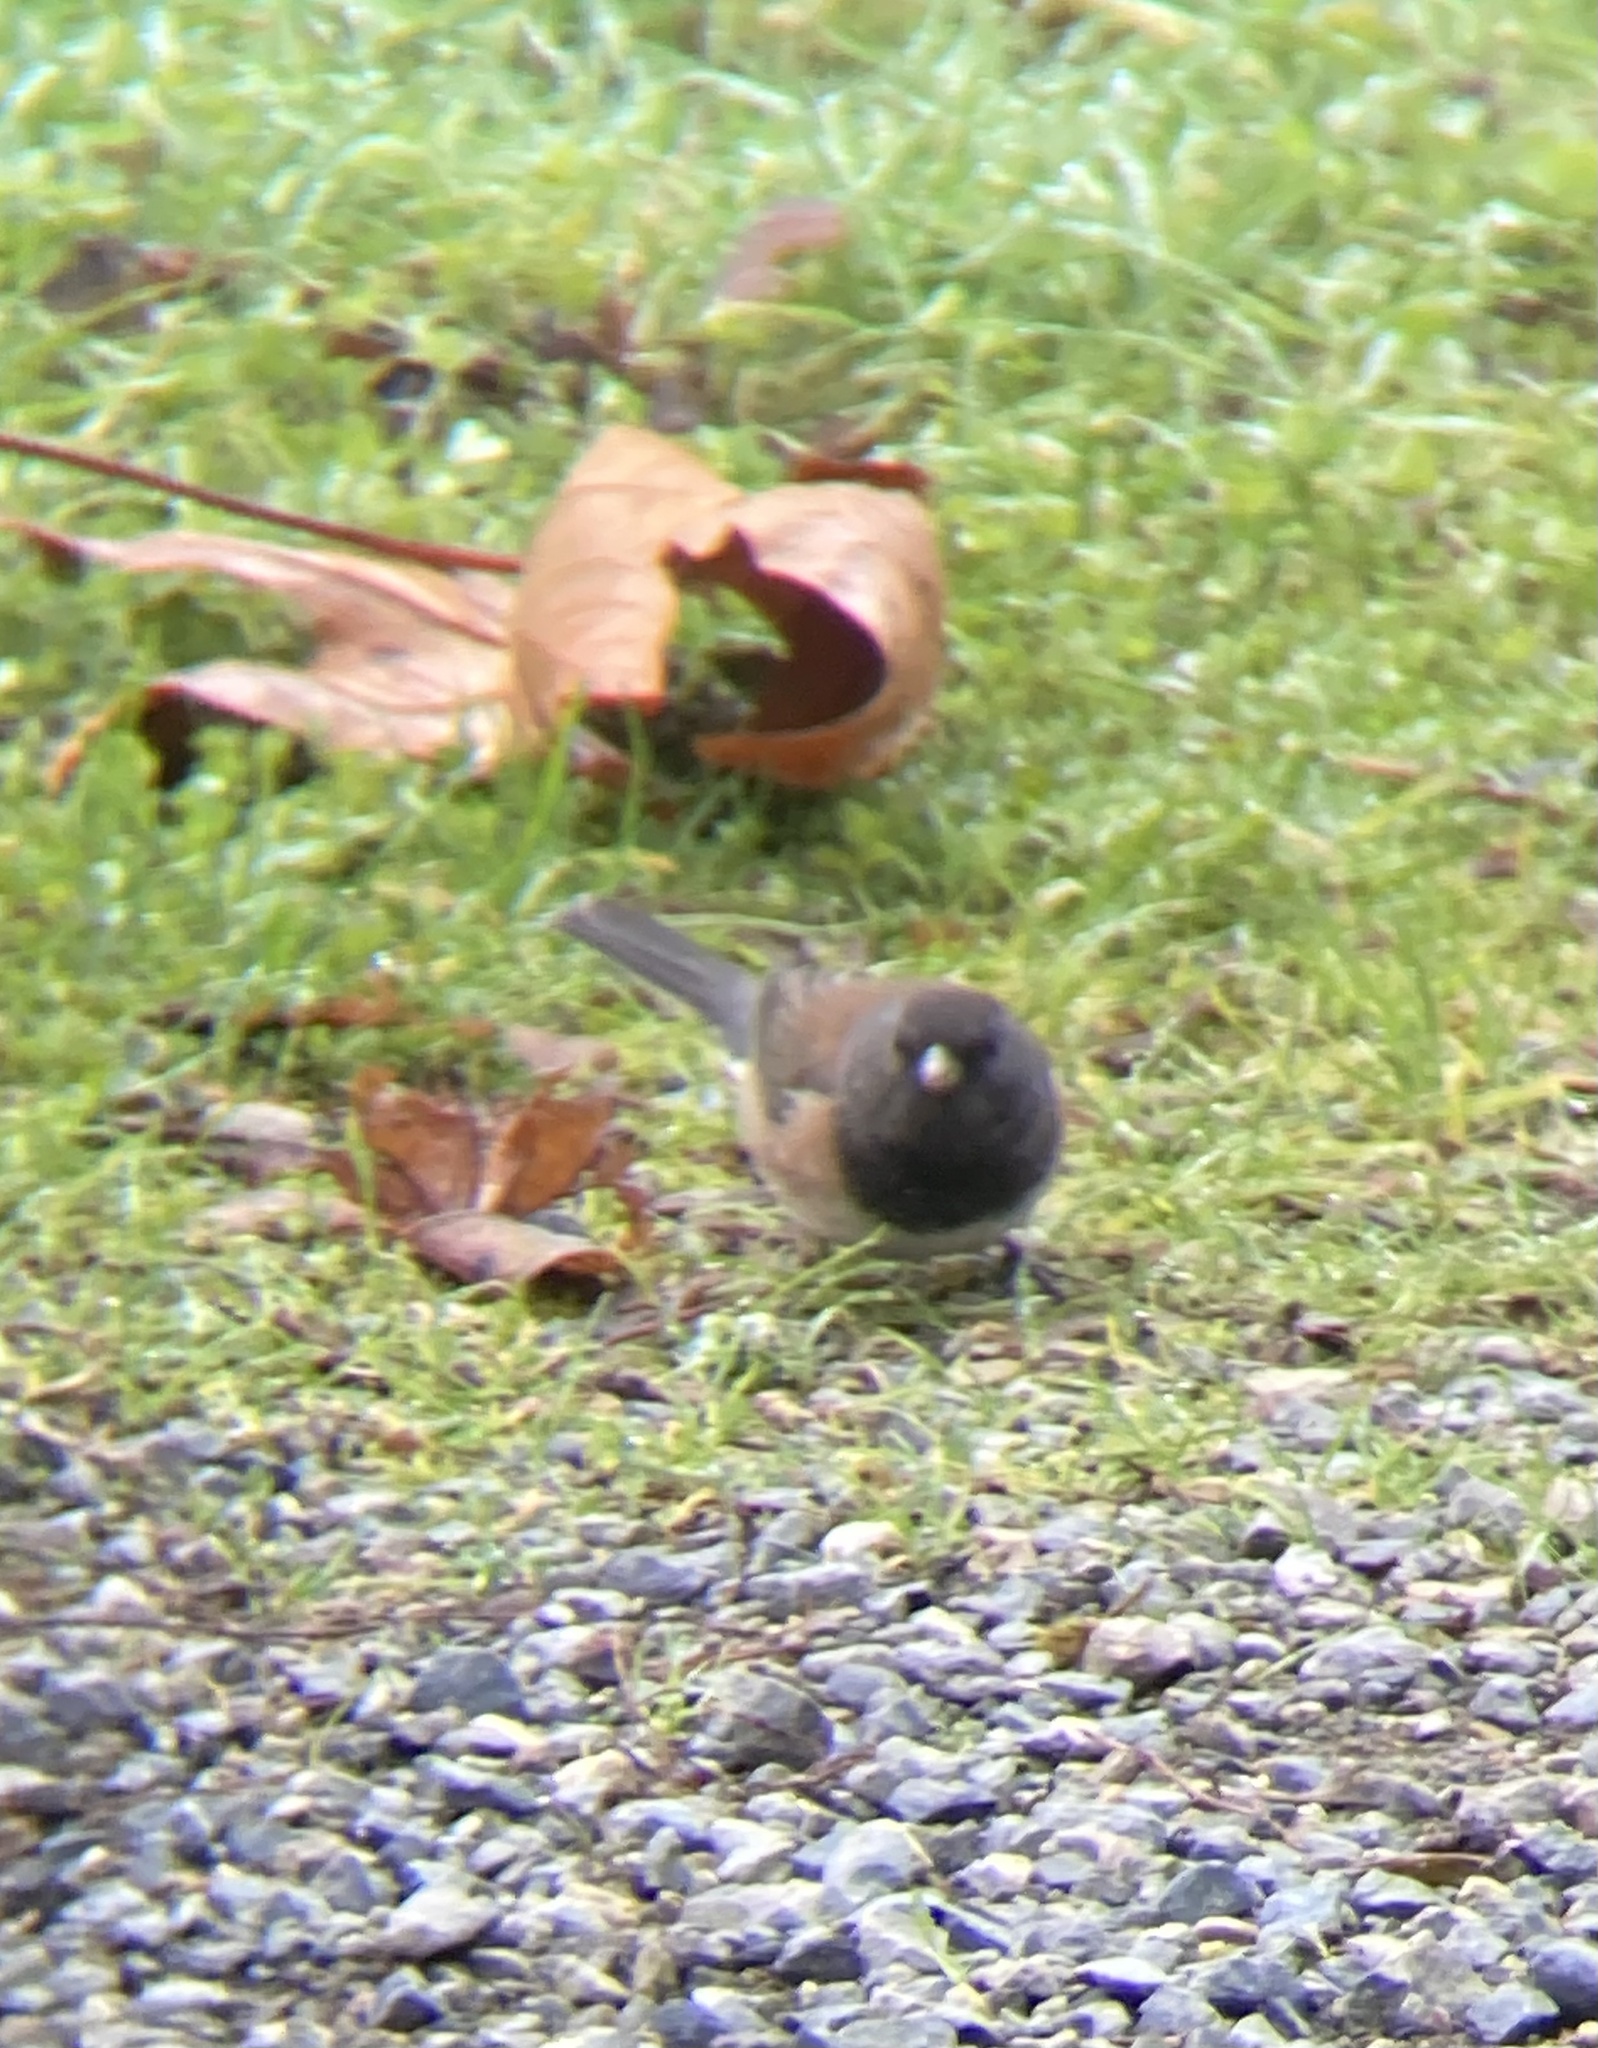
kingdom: Animalia
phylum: Chordata
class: Aves
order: Passeriformes
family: Passerellidae
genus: Junco
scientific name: Junco hyemalis
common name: Dark-eyed junco
